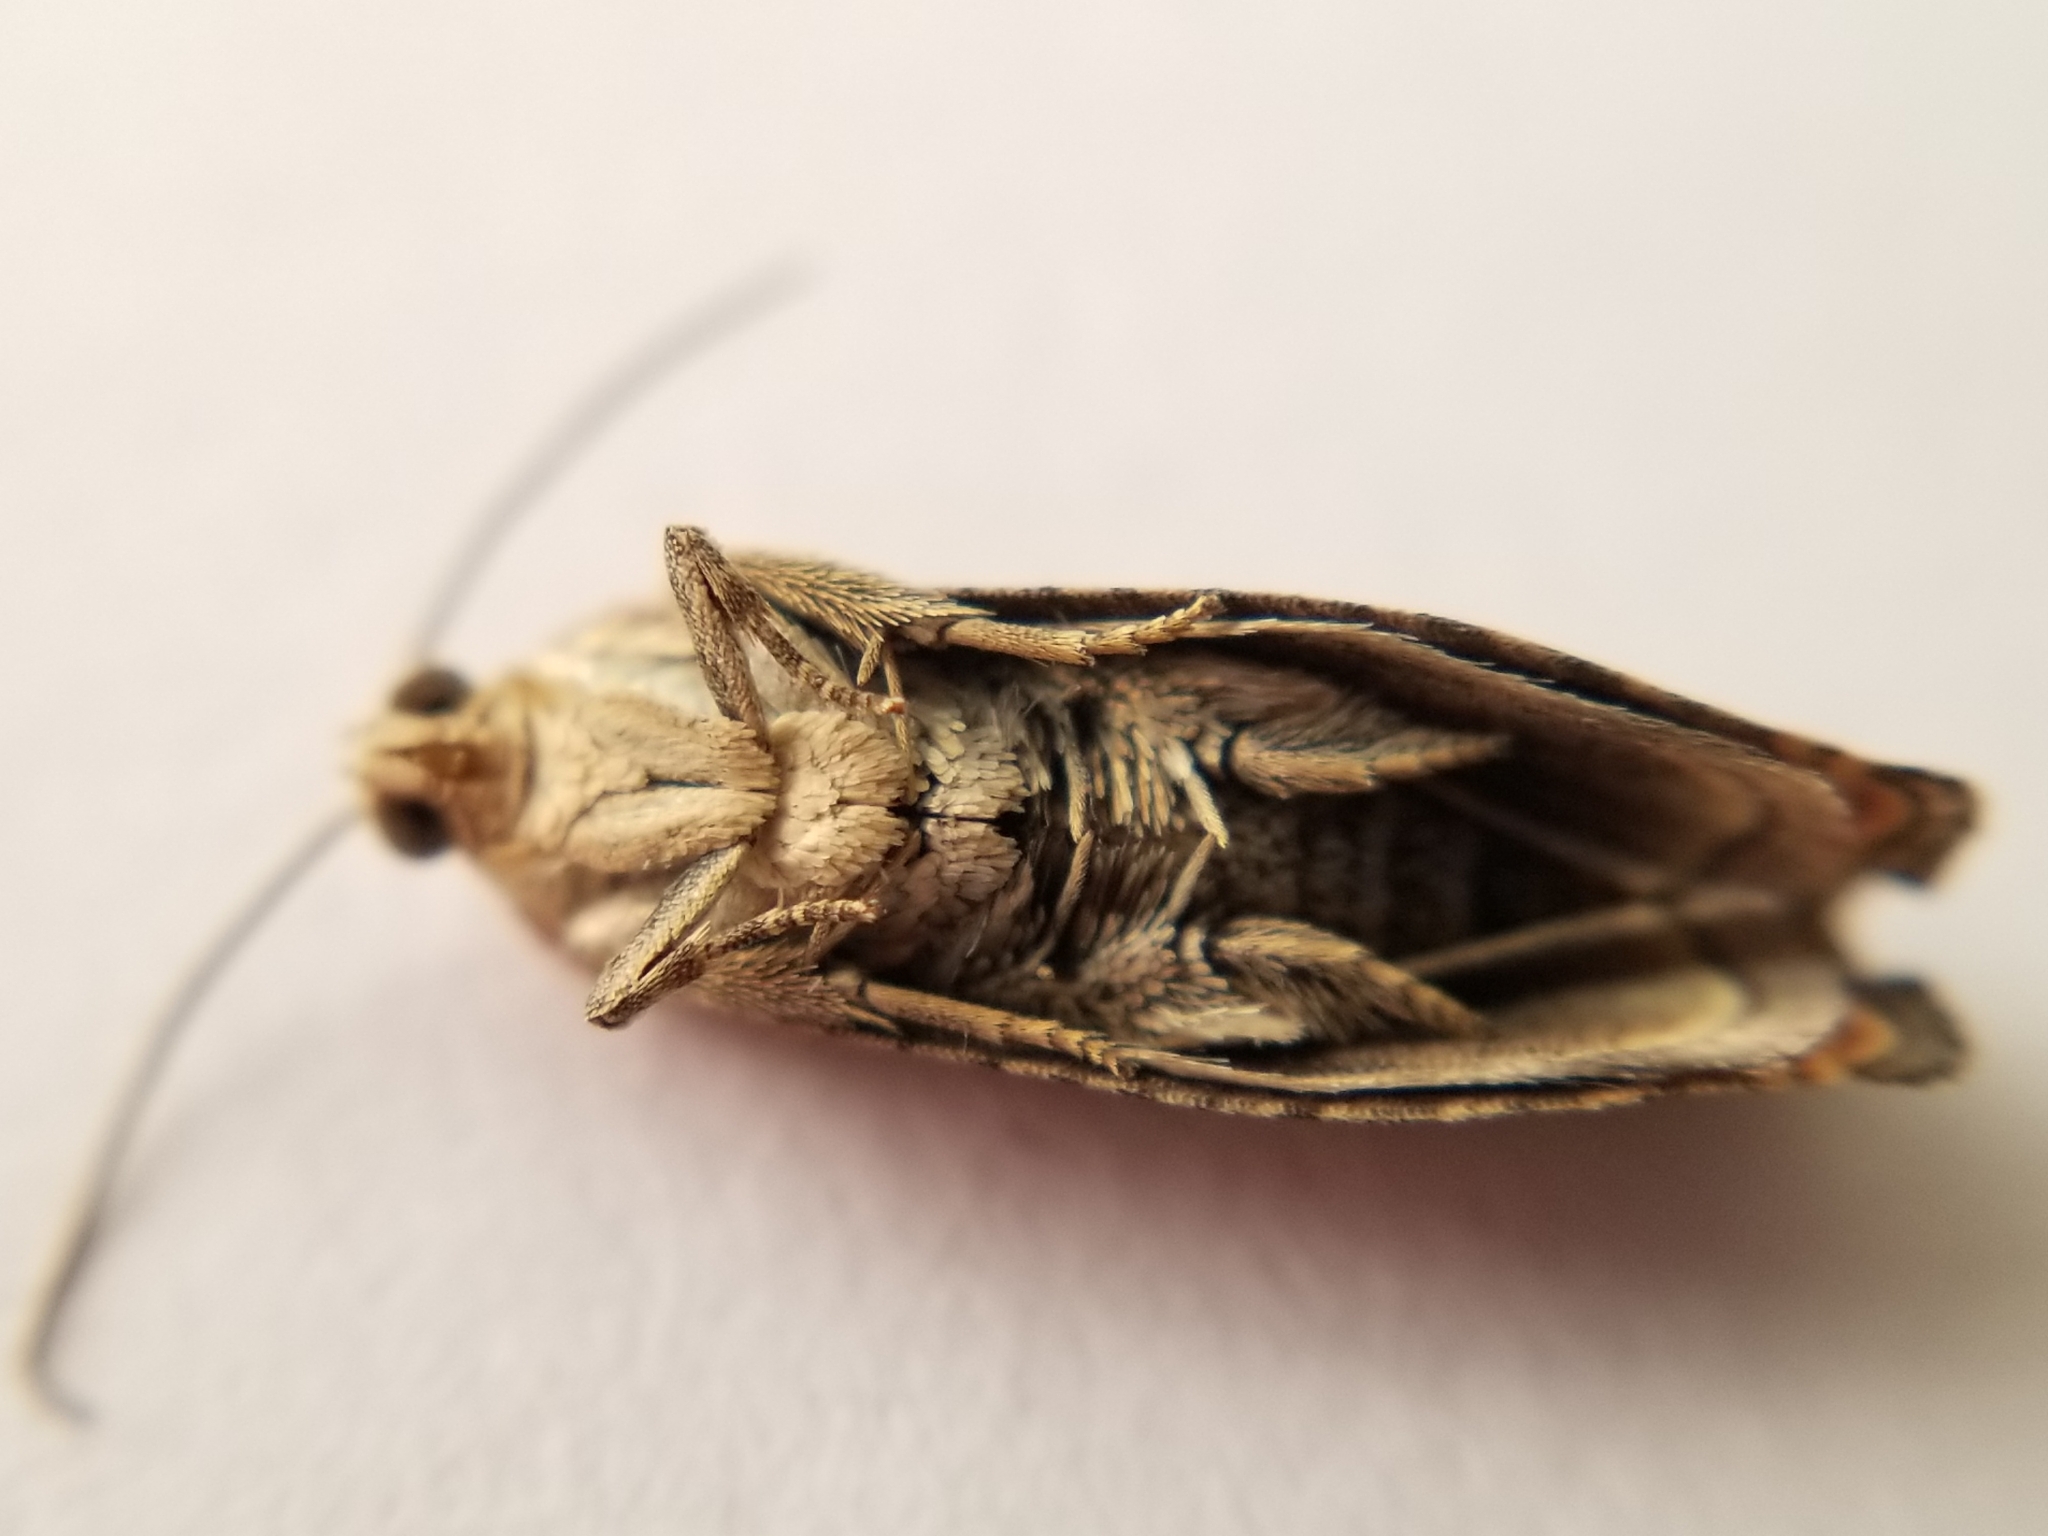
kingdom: Animalia
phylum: Arthropoda
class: Insecta
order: Lepidoptera
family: Tortricidae
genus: Cydia
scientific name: Cydia latiferreana
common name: Filbertworm moth
